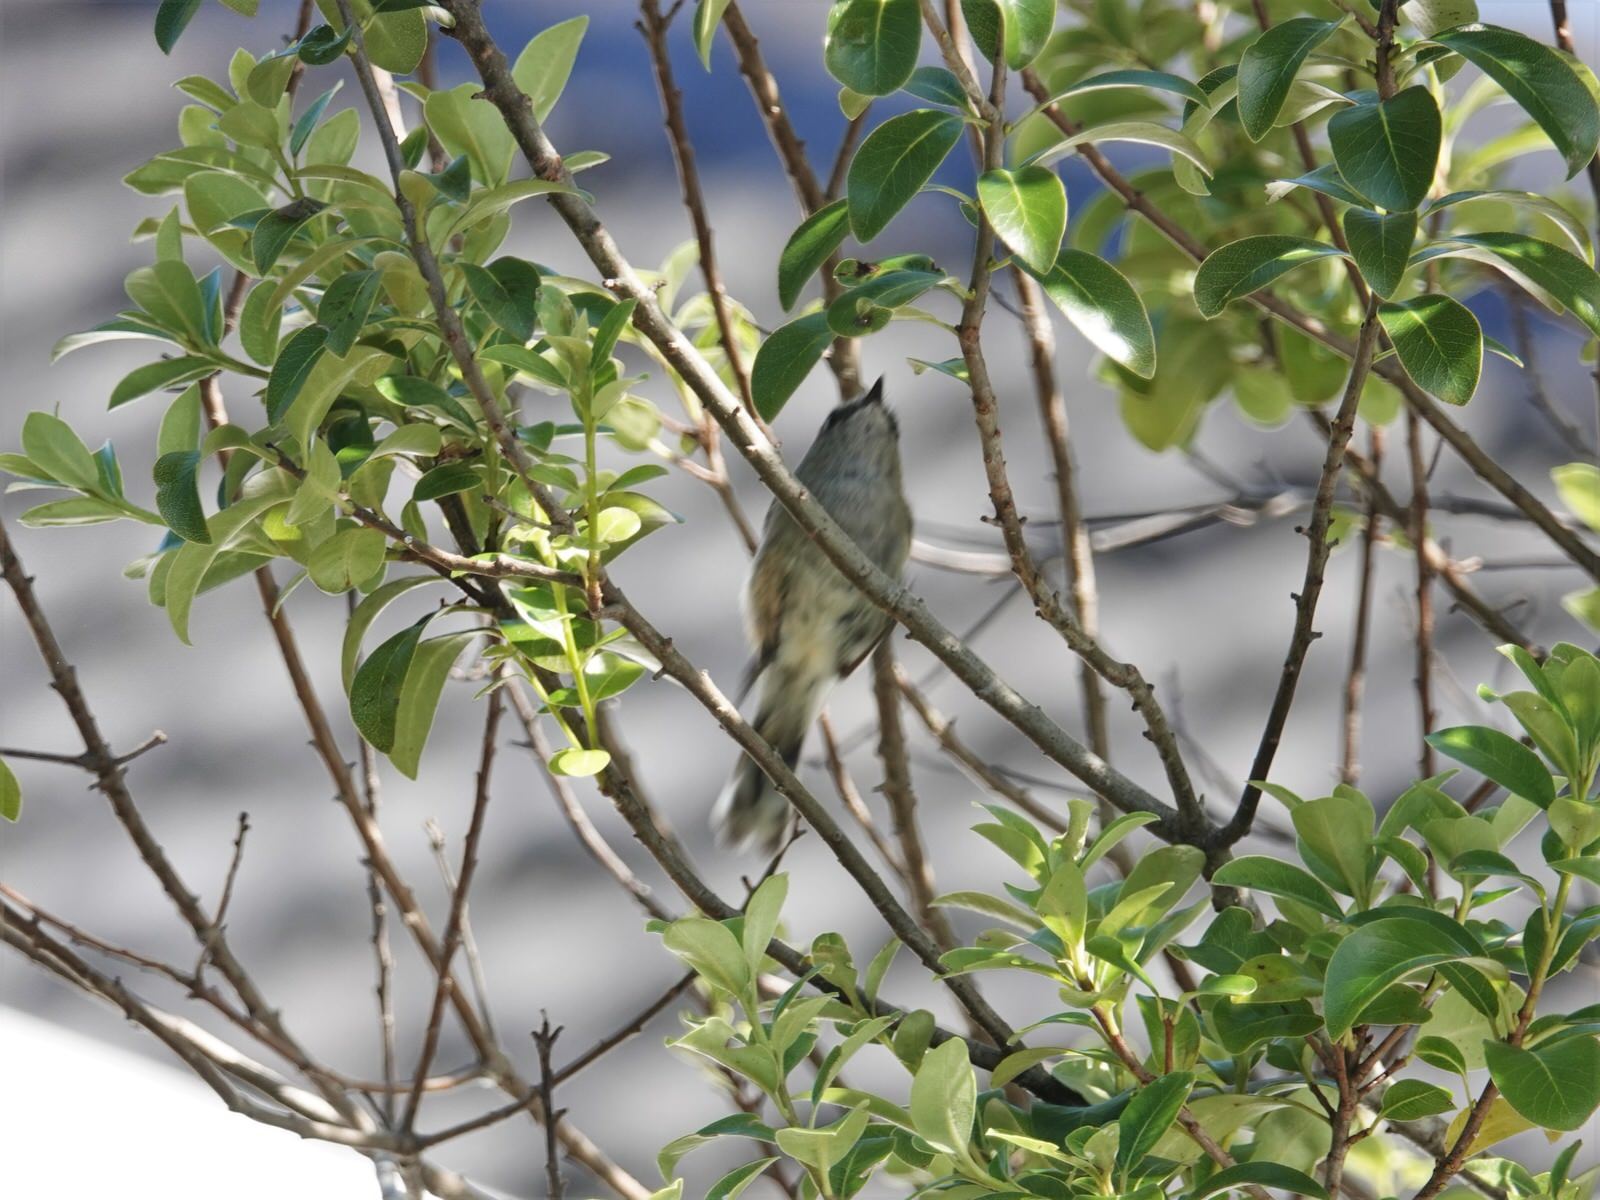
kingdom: Animalia
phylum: Chordata
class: Aves
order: Passeriformes
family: Acanthizidae
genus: Gerygone
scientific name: Gerygone igata
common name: Grey gerygone
